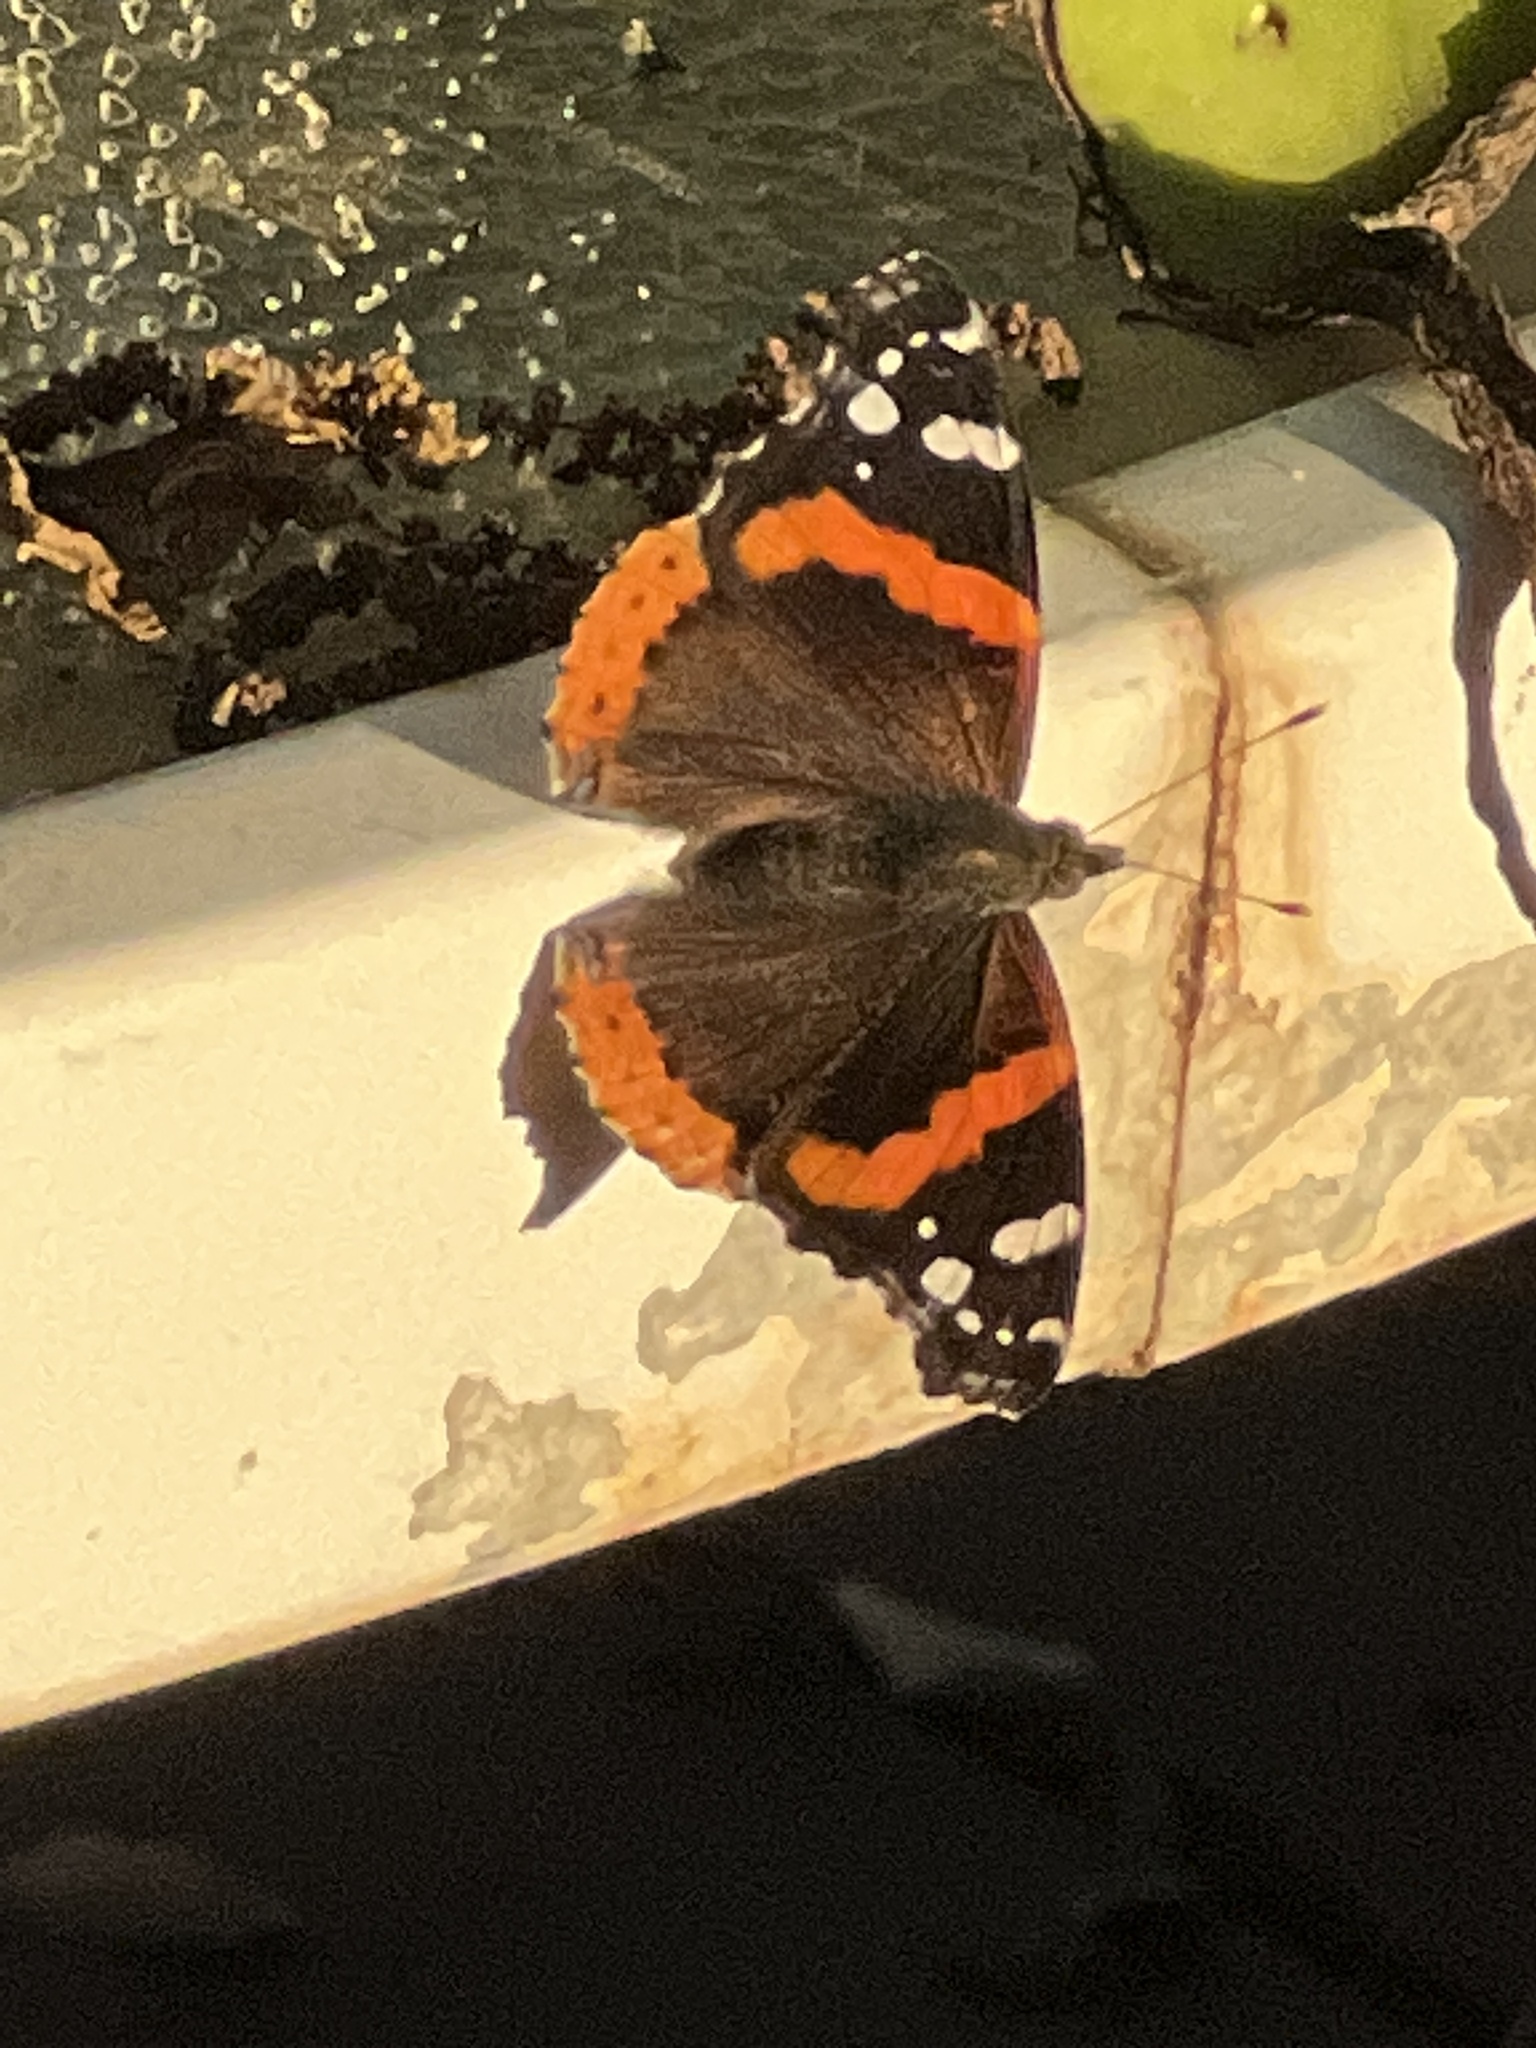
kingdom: Animalia
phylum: Arthropoda
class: Insecta
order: Lepidoptera
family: Nymphalidae
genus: Vanessa
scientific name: Vanessa atalanta
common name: Red admiral
